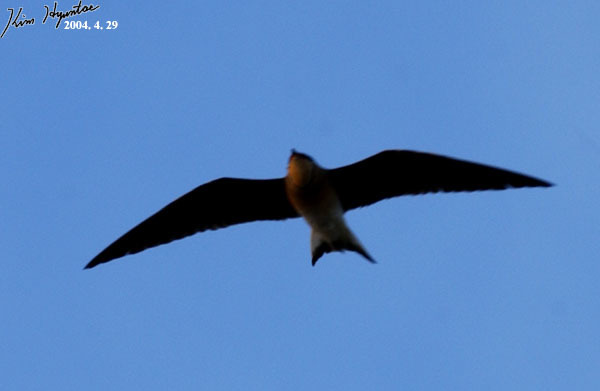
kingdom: Animalia
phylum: Chordata
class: Aves
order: Charadriiformes
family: Glareolidae
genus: Glareola
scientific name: Glareola maldivarum
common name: Oriental pratincole
